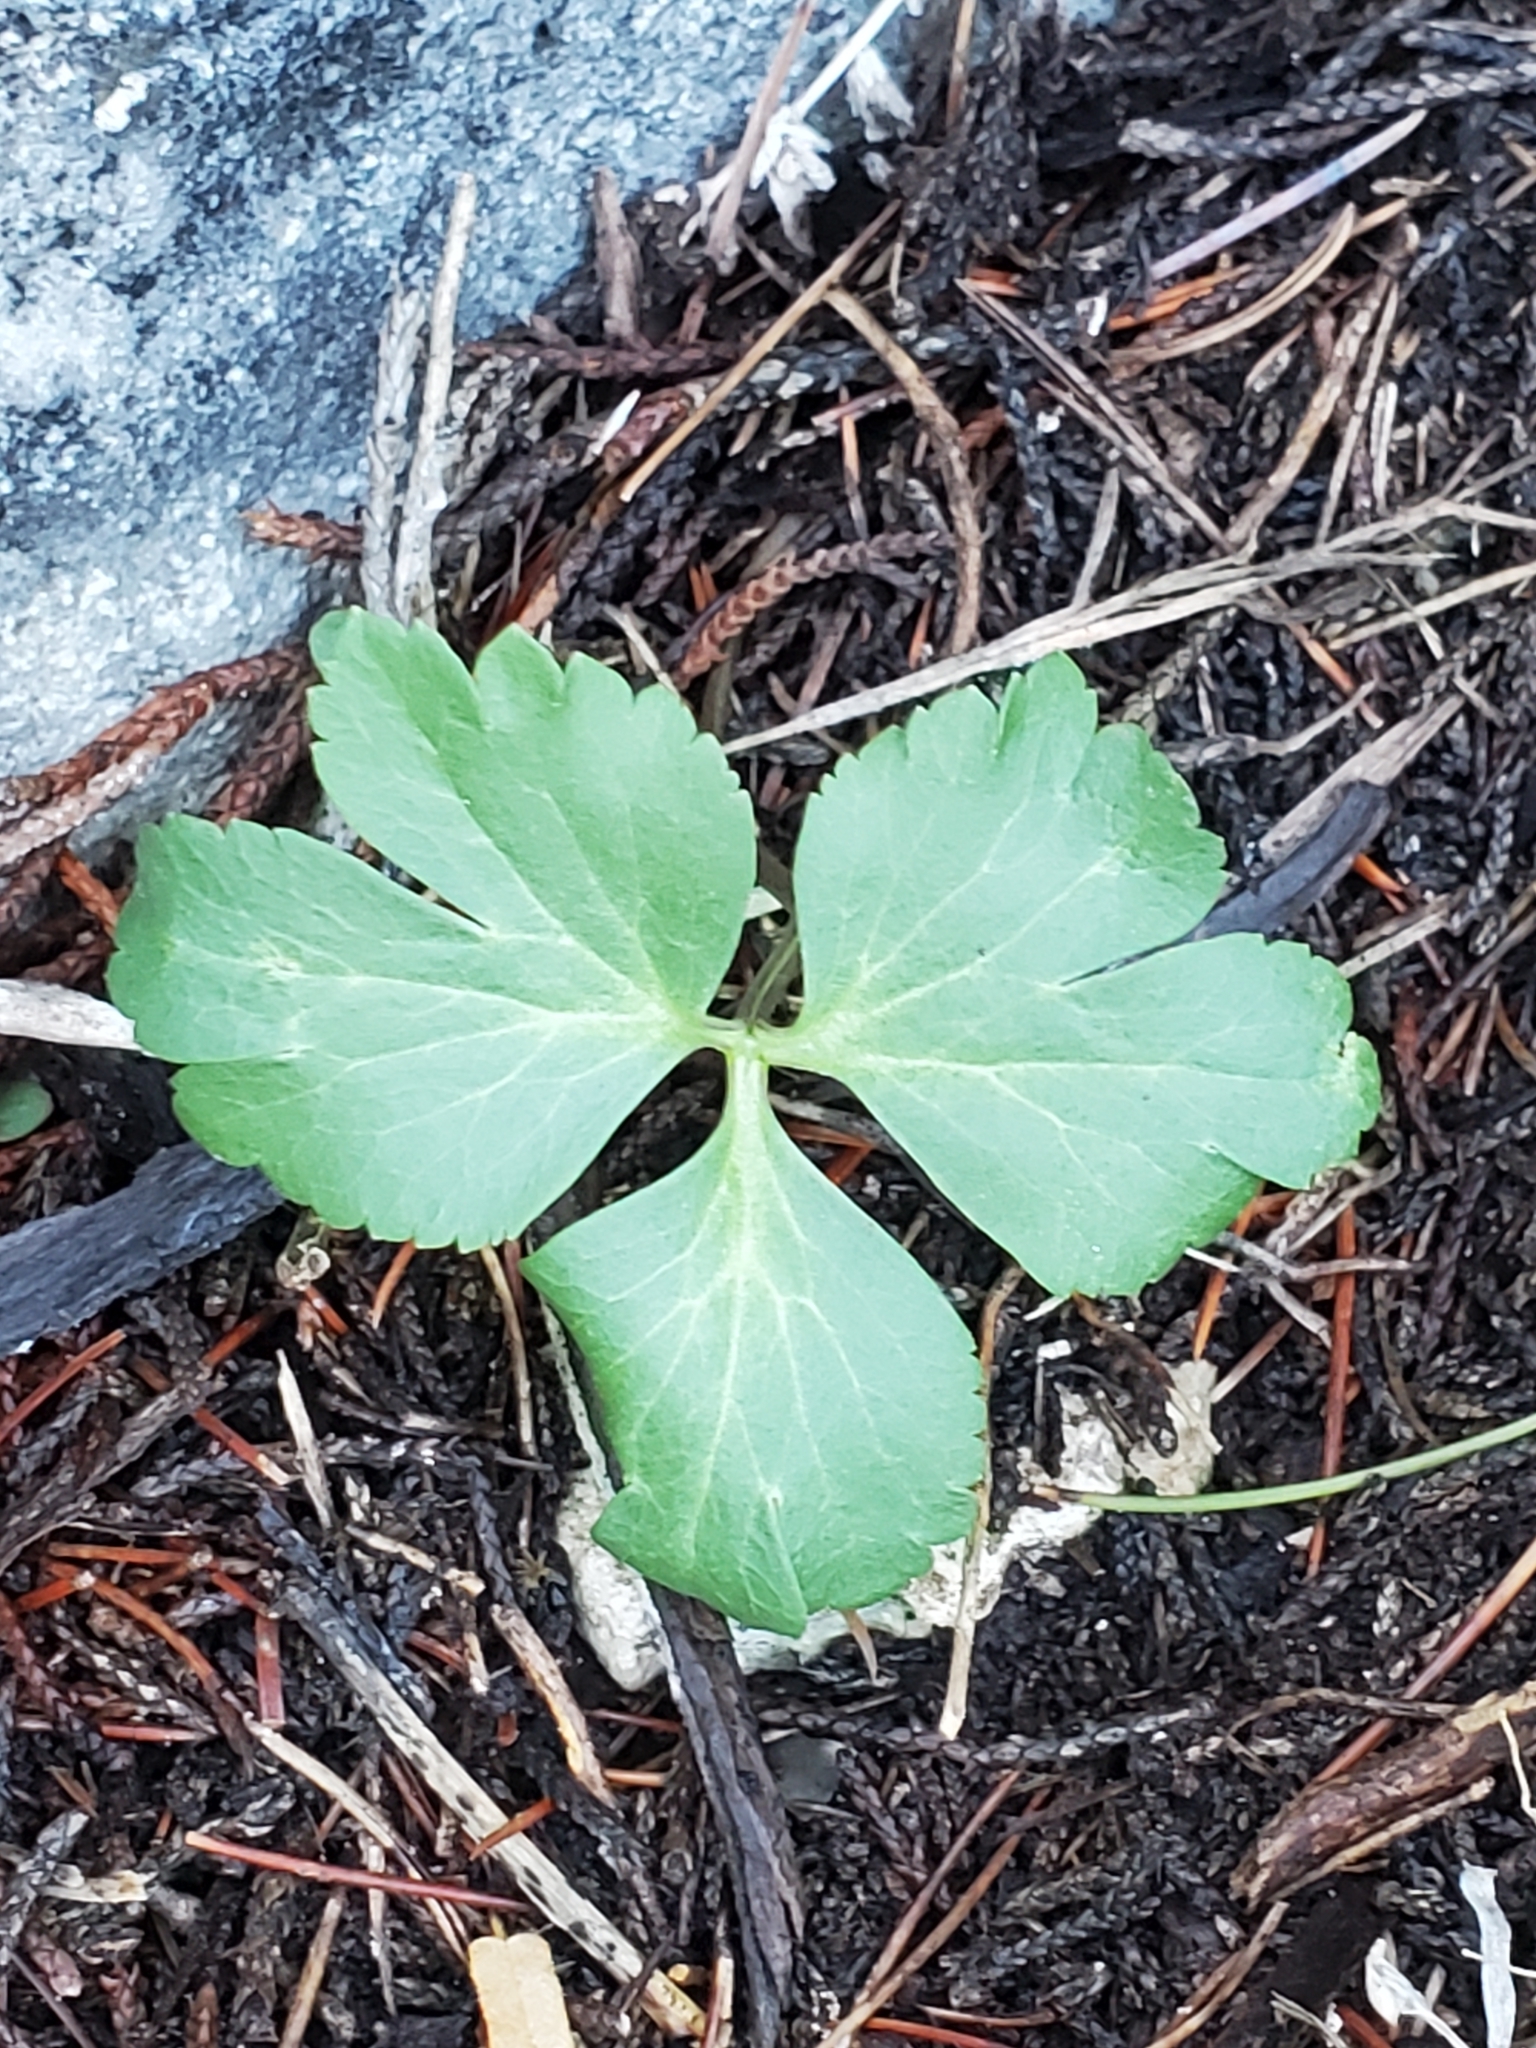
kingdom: Plantae
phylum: Tracheophyta
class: Magnoliopsida
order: Ranunculales
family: Ranunculaceae
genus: Anemone
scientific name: Anemone edwardsiana
